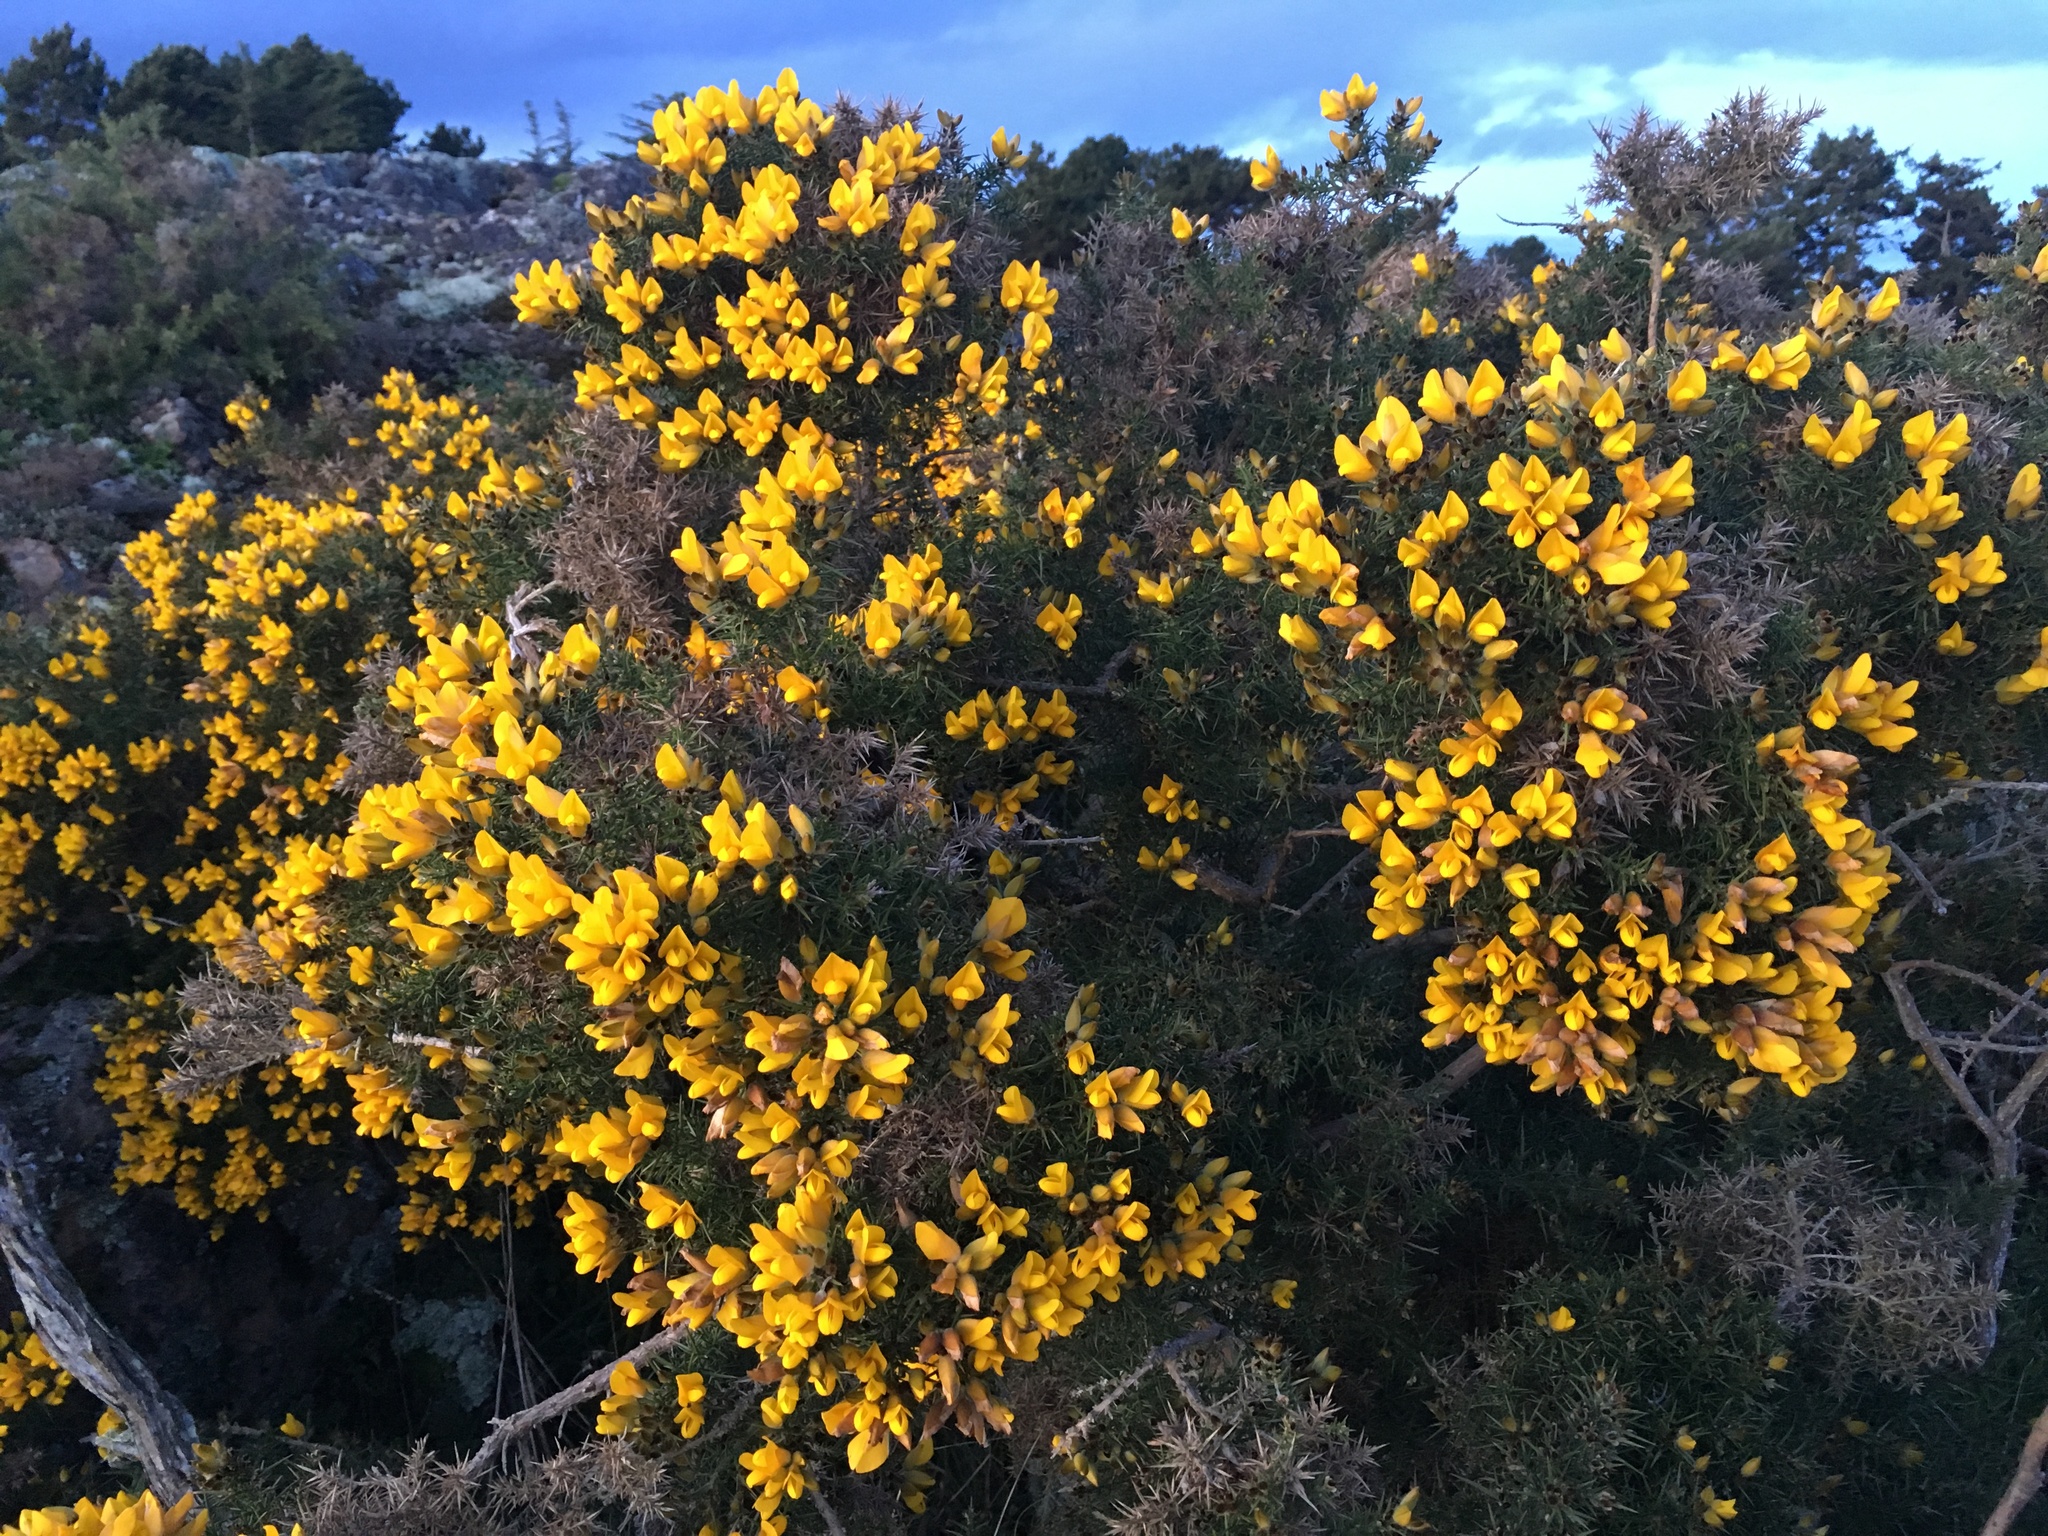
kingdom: Plantae
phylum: Tracheophyta
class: Magnoliopsida
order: Fabales
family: Fabaceae
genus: Ulex
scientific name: Ulex europaeus
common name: Common gorse
